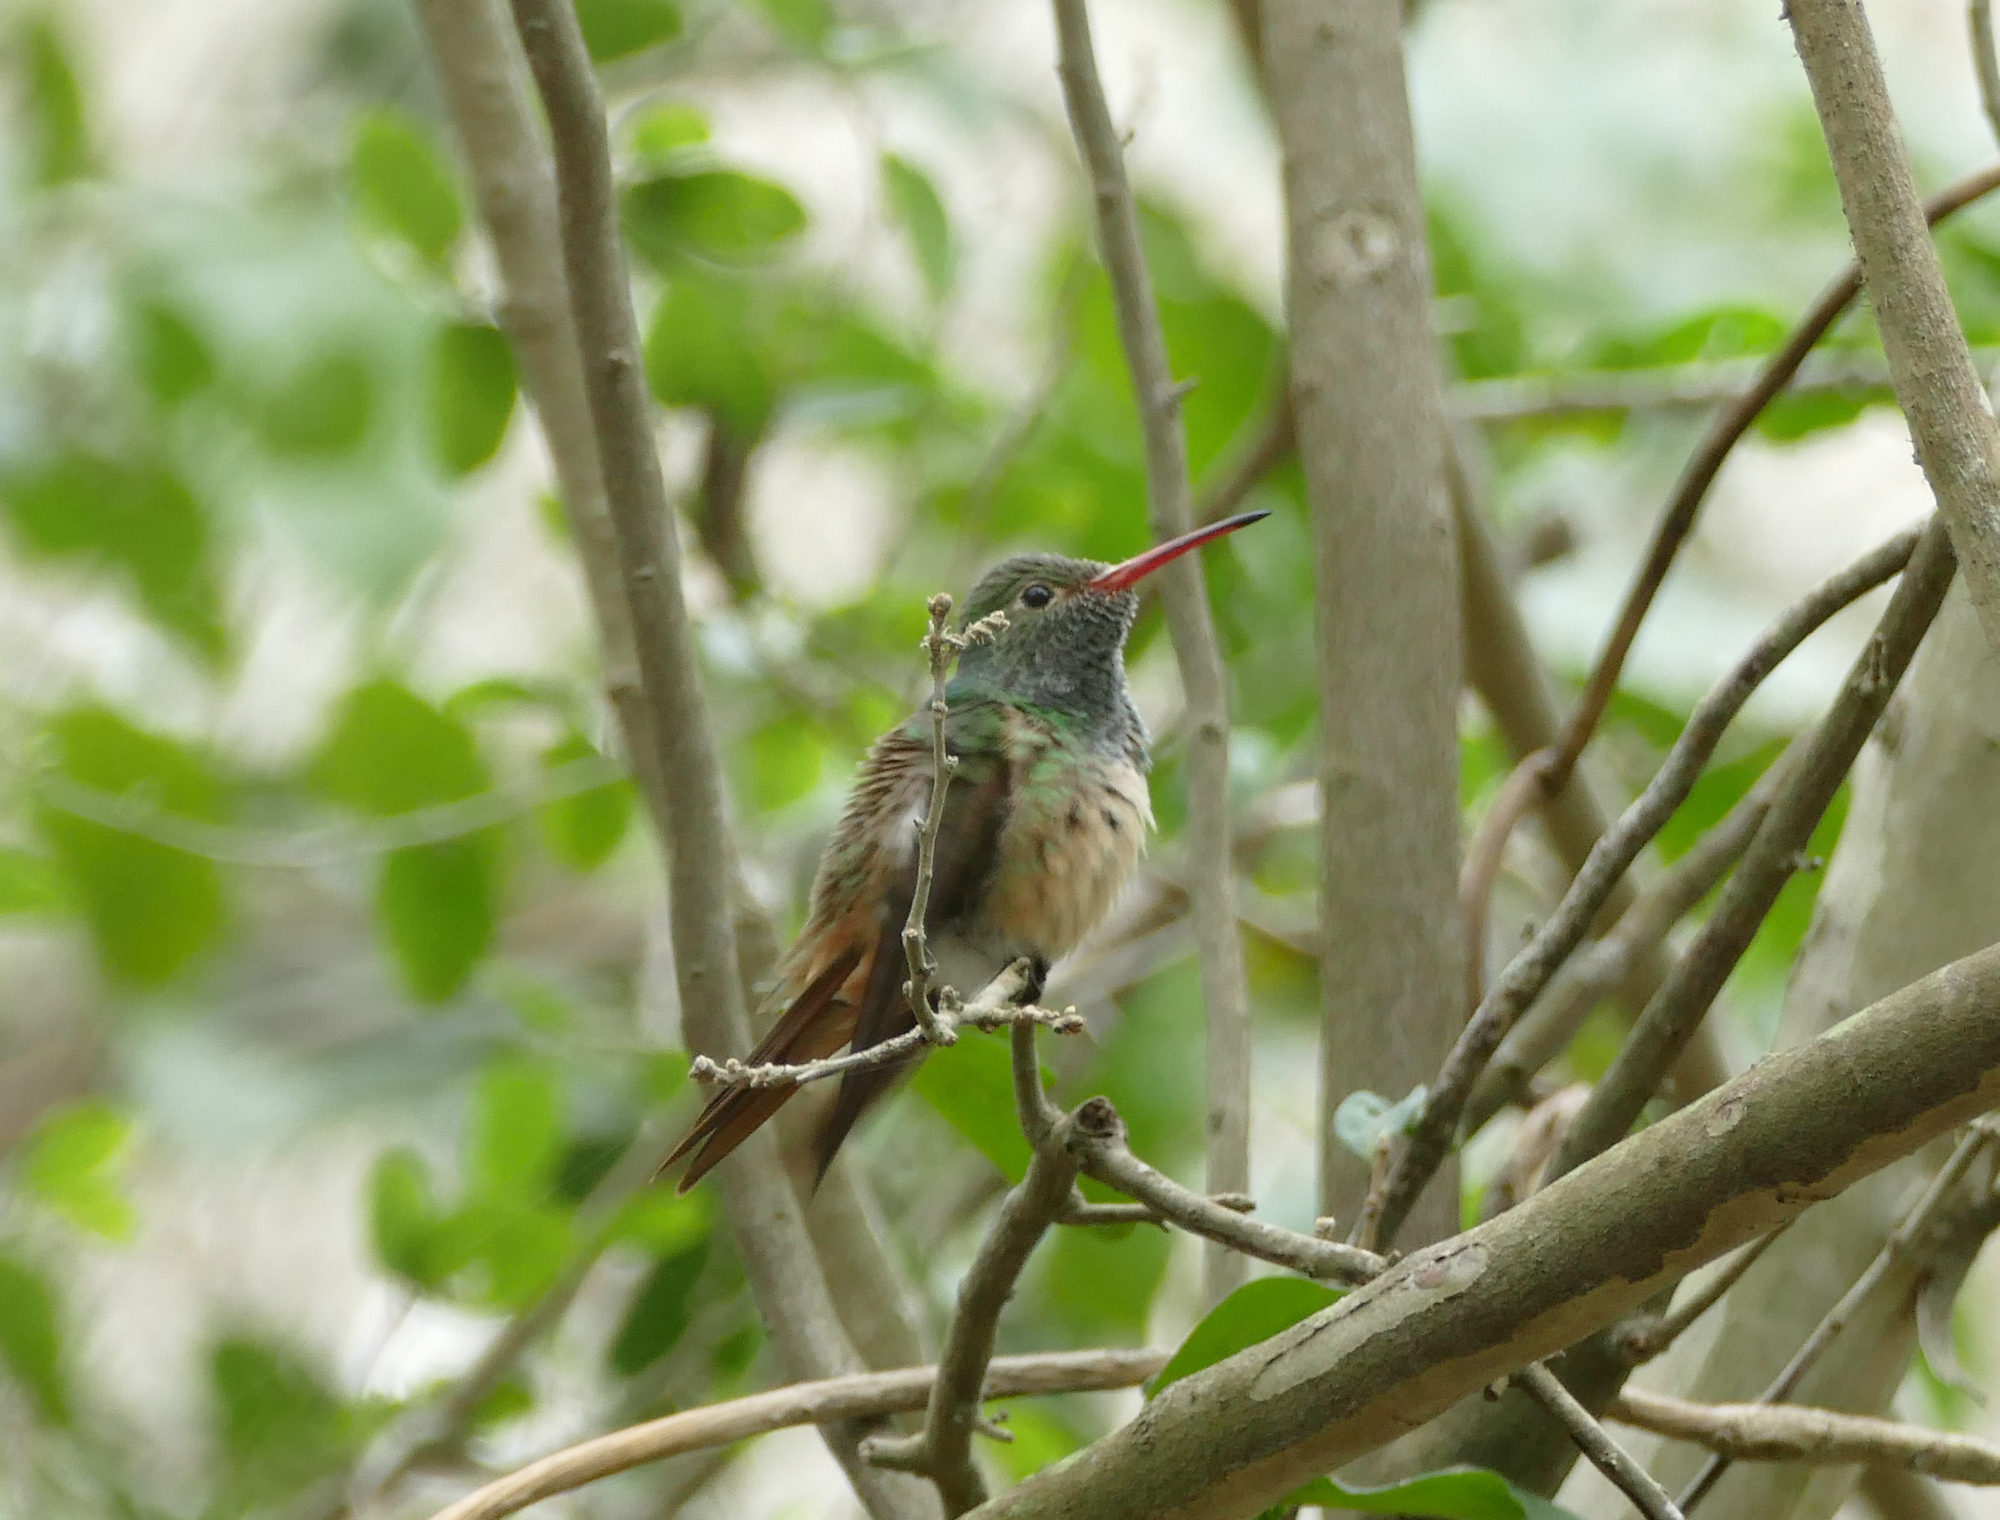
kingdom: Animalia
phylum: Chordata
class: Aves
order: Apodiformes
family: Trochilidae
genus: Amazilia
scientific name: Amazilia yucatanensis
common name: Buff-bellied hummingbird
